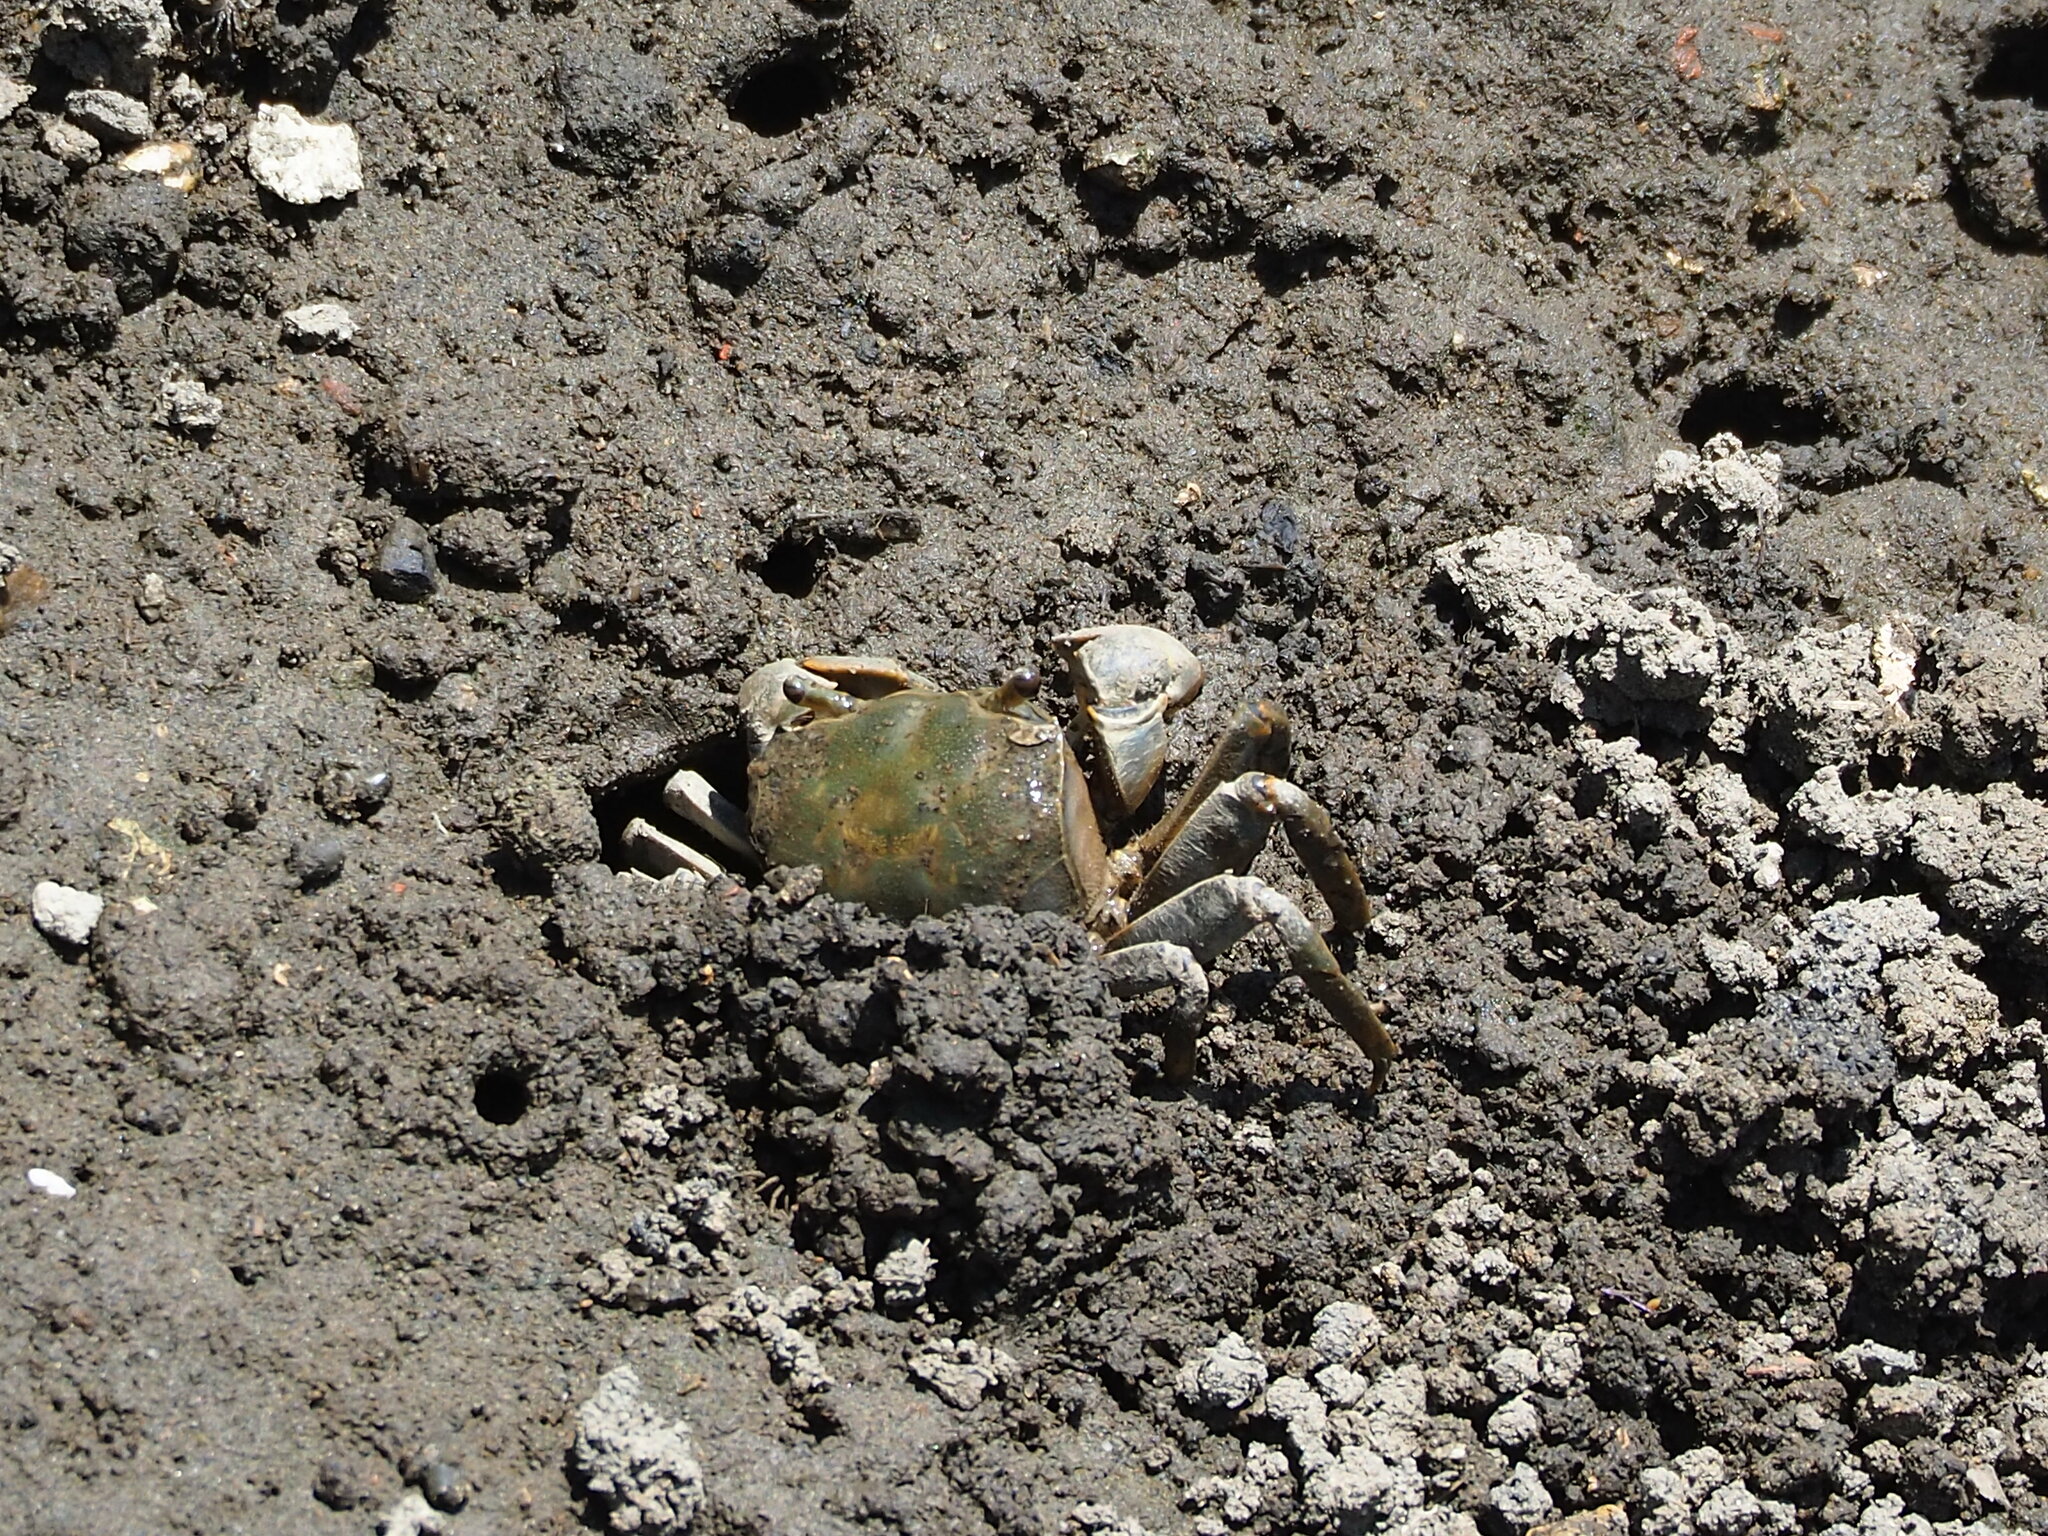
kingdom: Animalia
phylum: Arthropoda
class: Malacostraca
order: Decapoda
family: Varunidae
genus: Helice
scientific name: Helice formosensis
